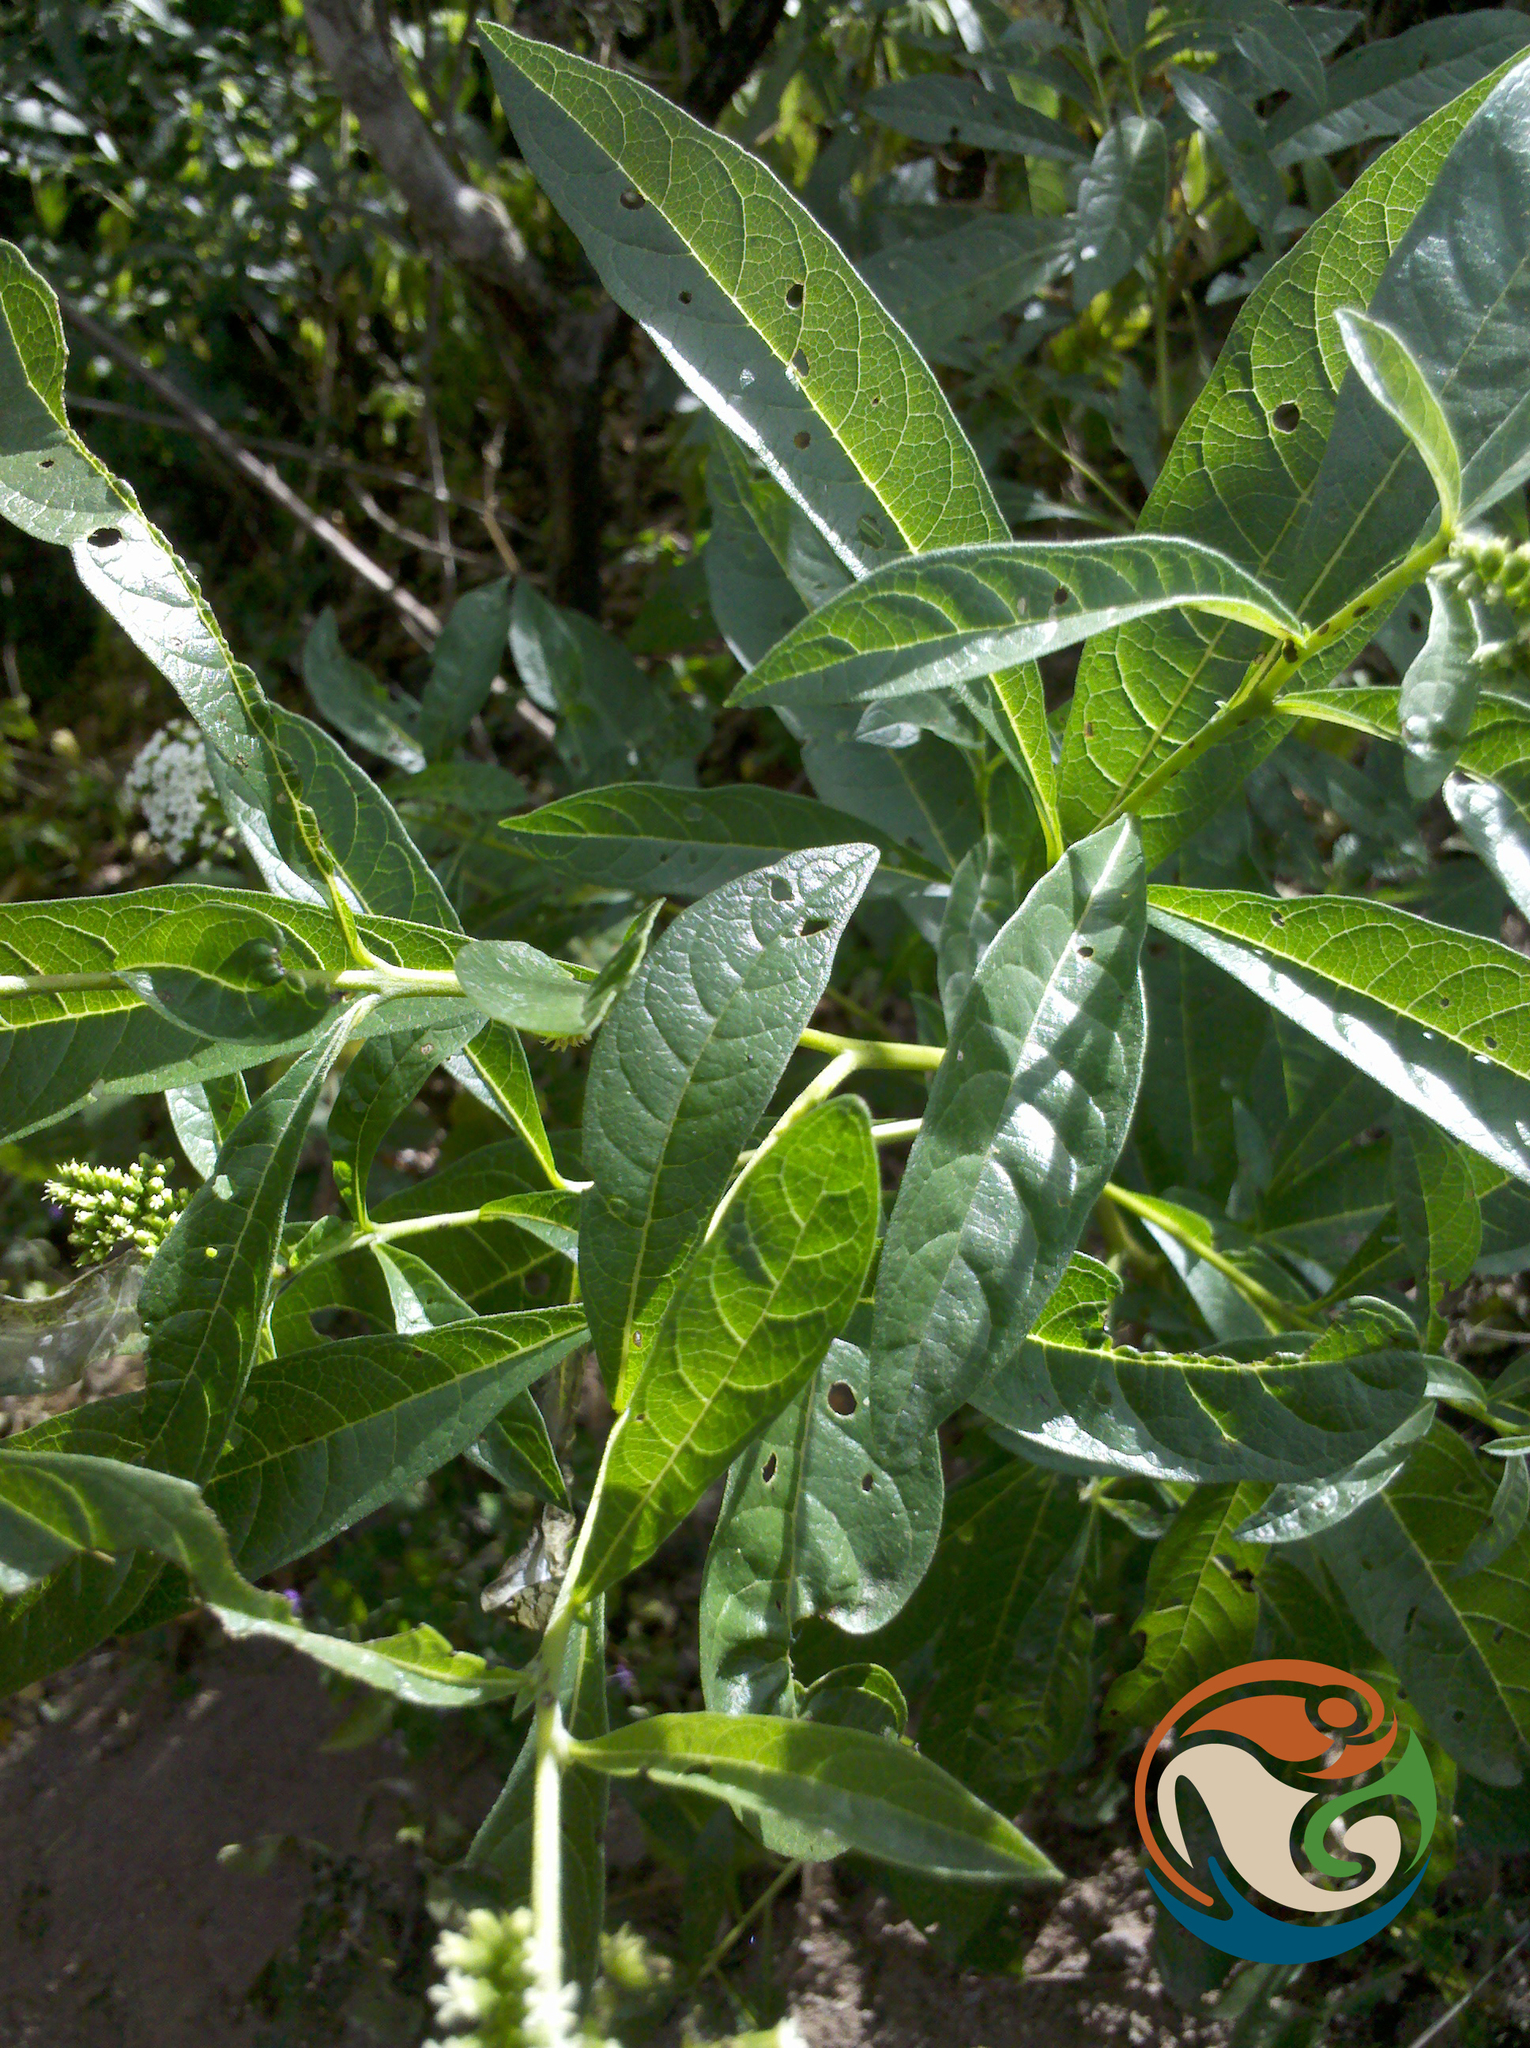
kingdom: Plantae
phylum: Tracheophyta
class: Magnoliopsida
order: Boraginales
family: Heliotropiaceae
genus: Tournefortia
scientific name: Tournefortia mutabilis
